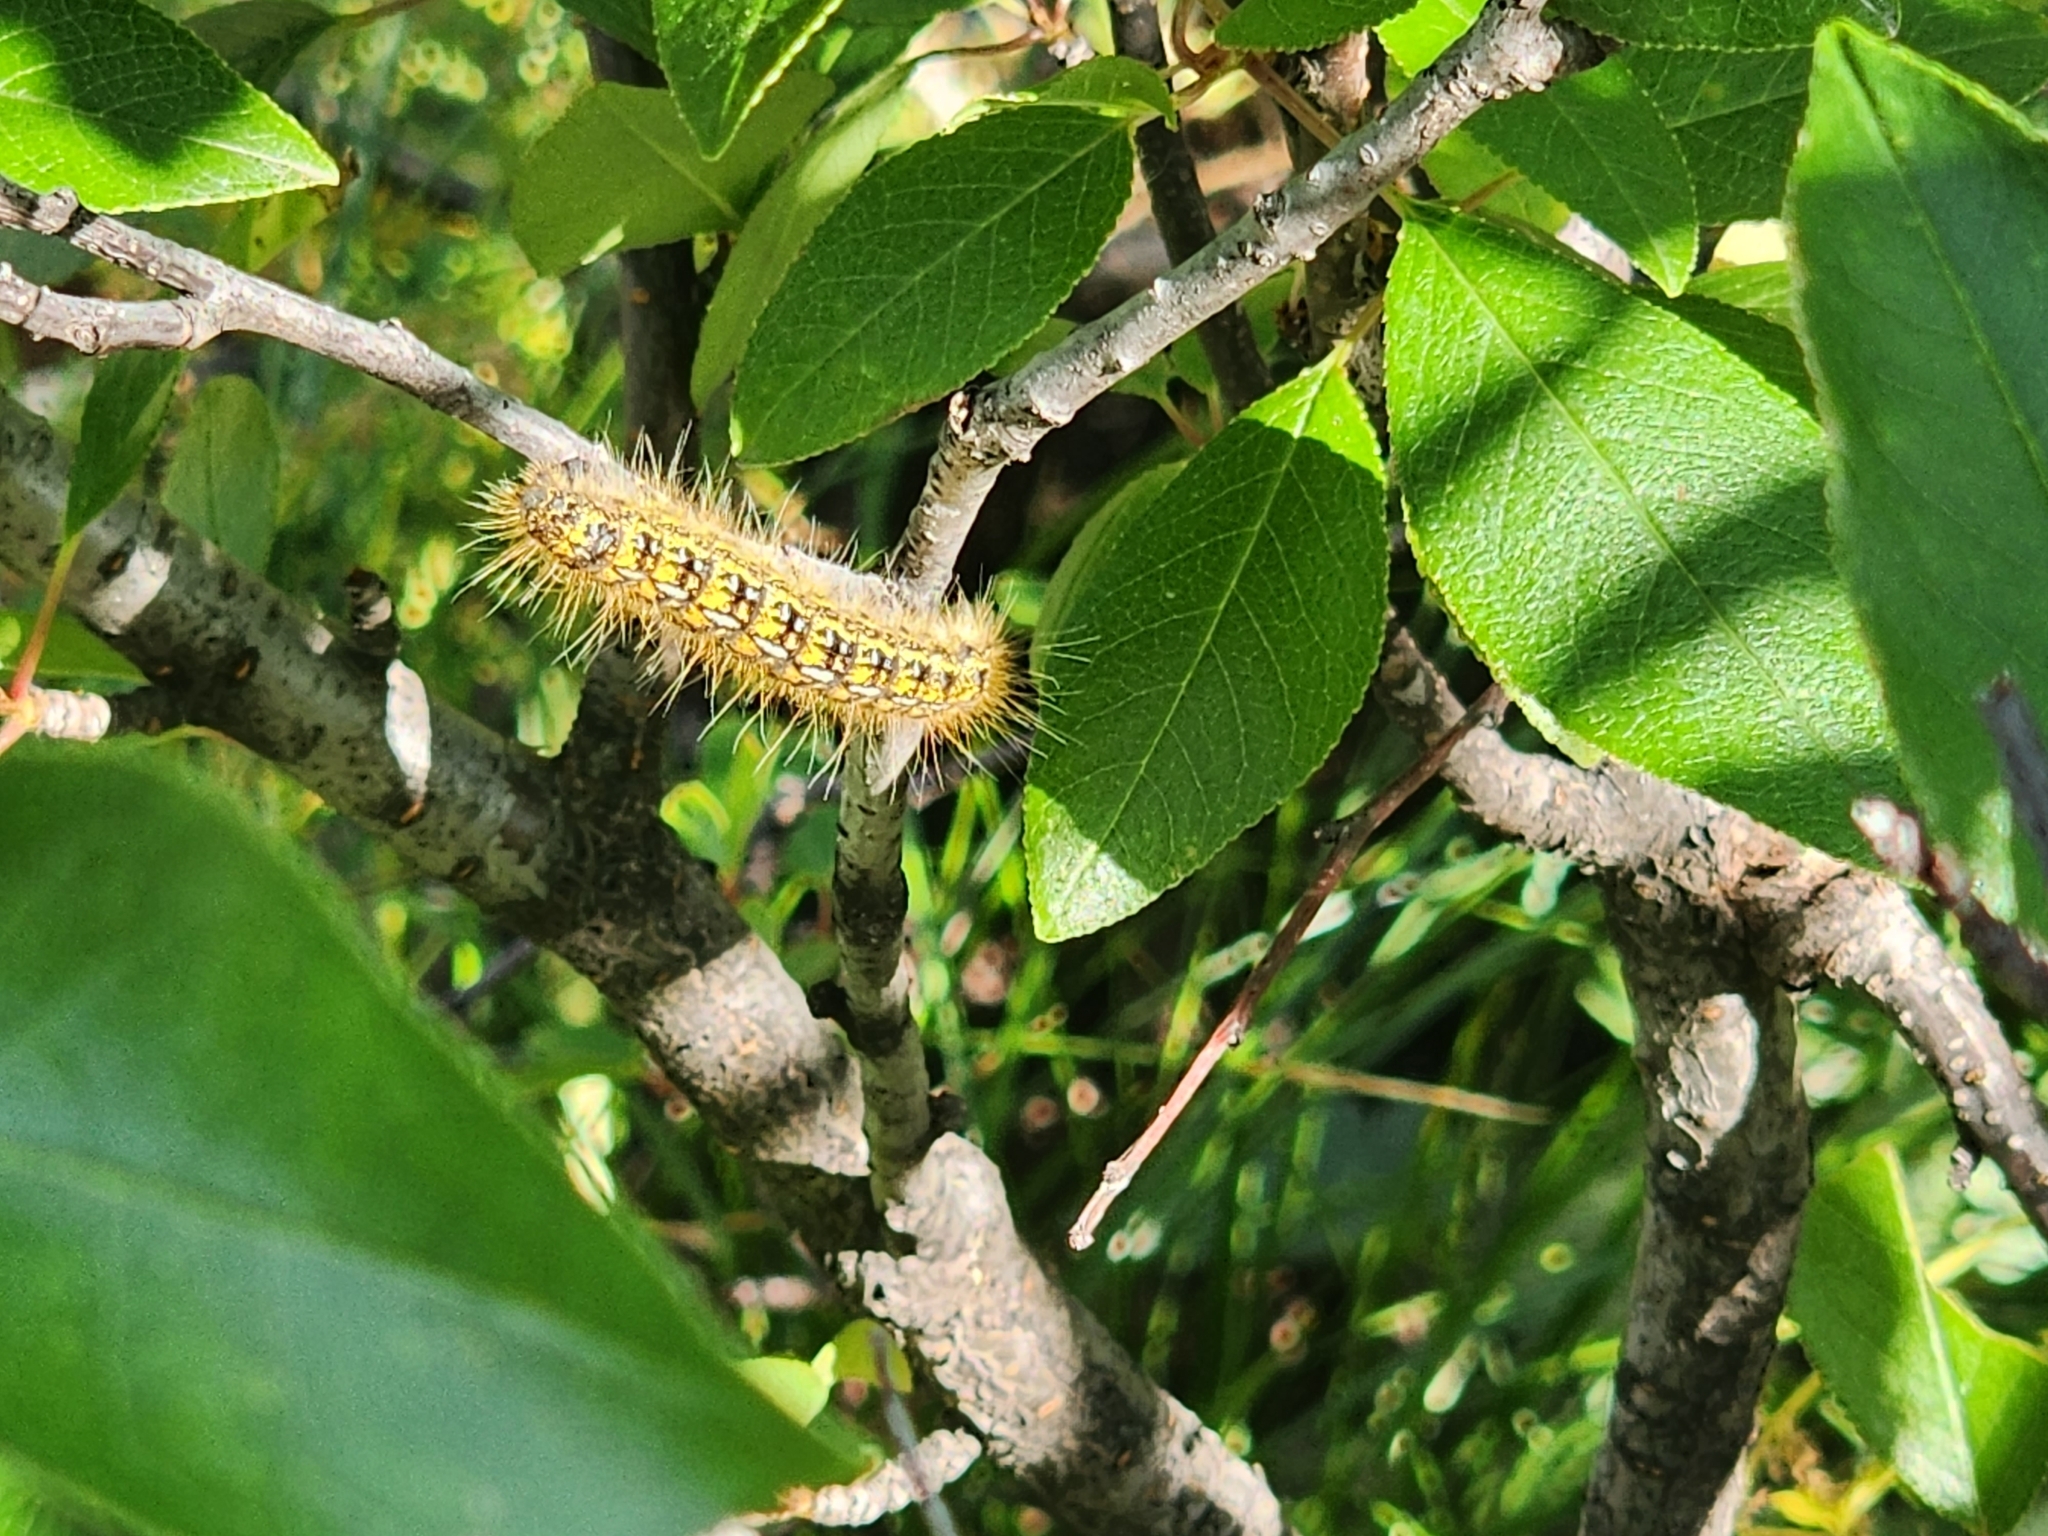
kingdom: Animalia
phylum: Arthropoda
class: Insecta
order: Lepidoptera
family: Lasiocampidae
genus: Malacosoma
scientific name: Malacosoma californica
